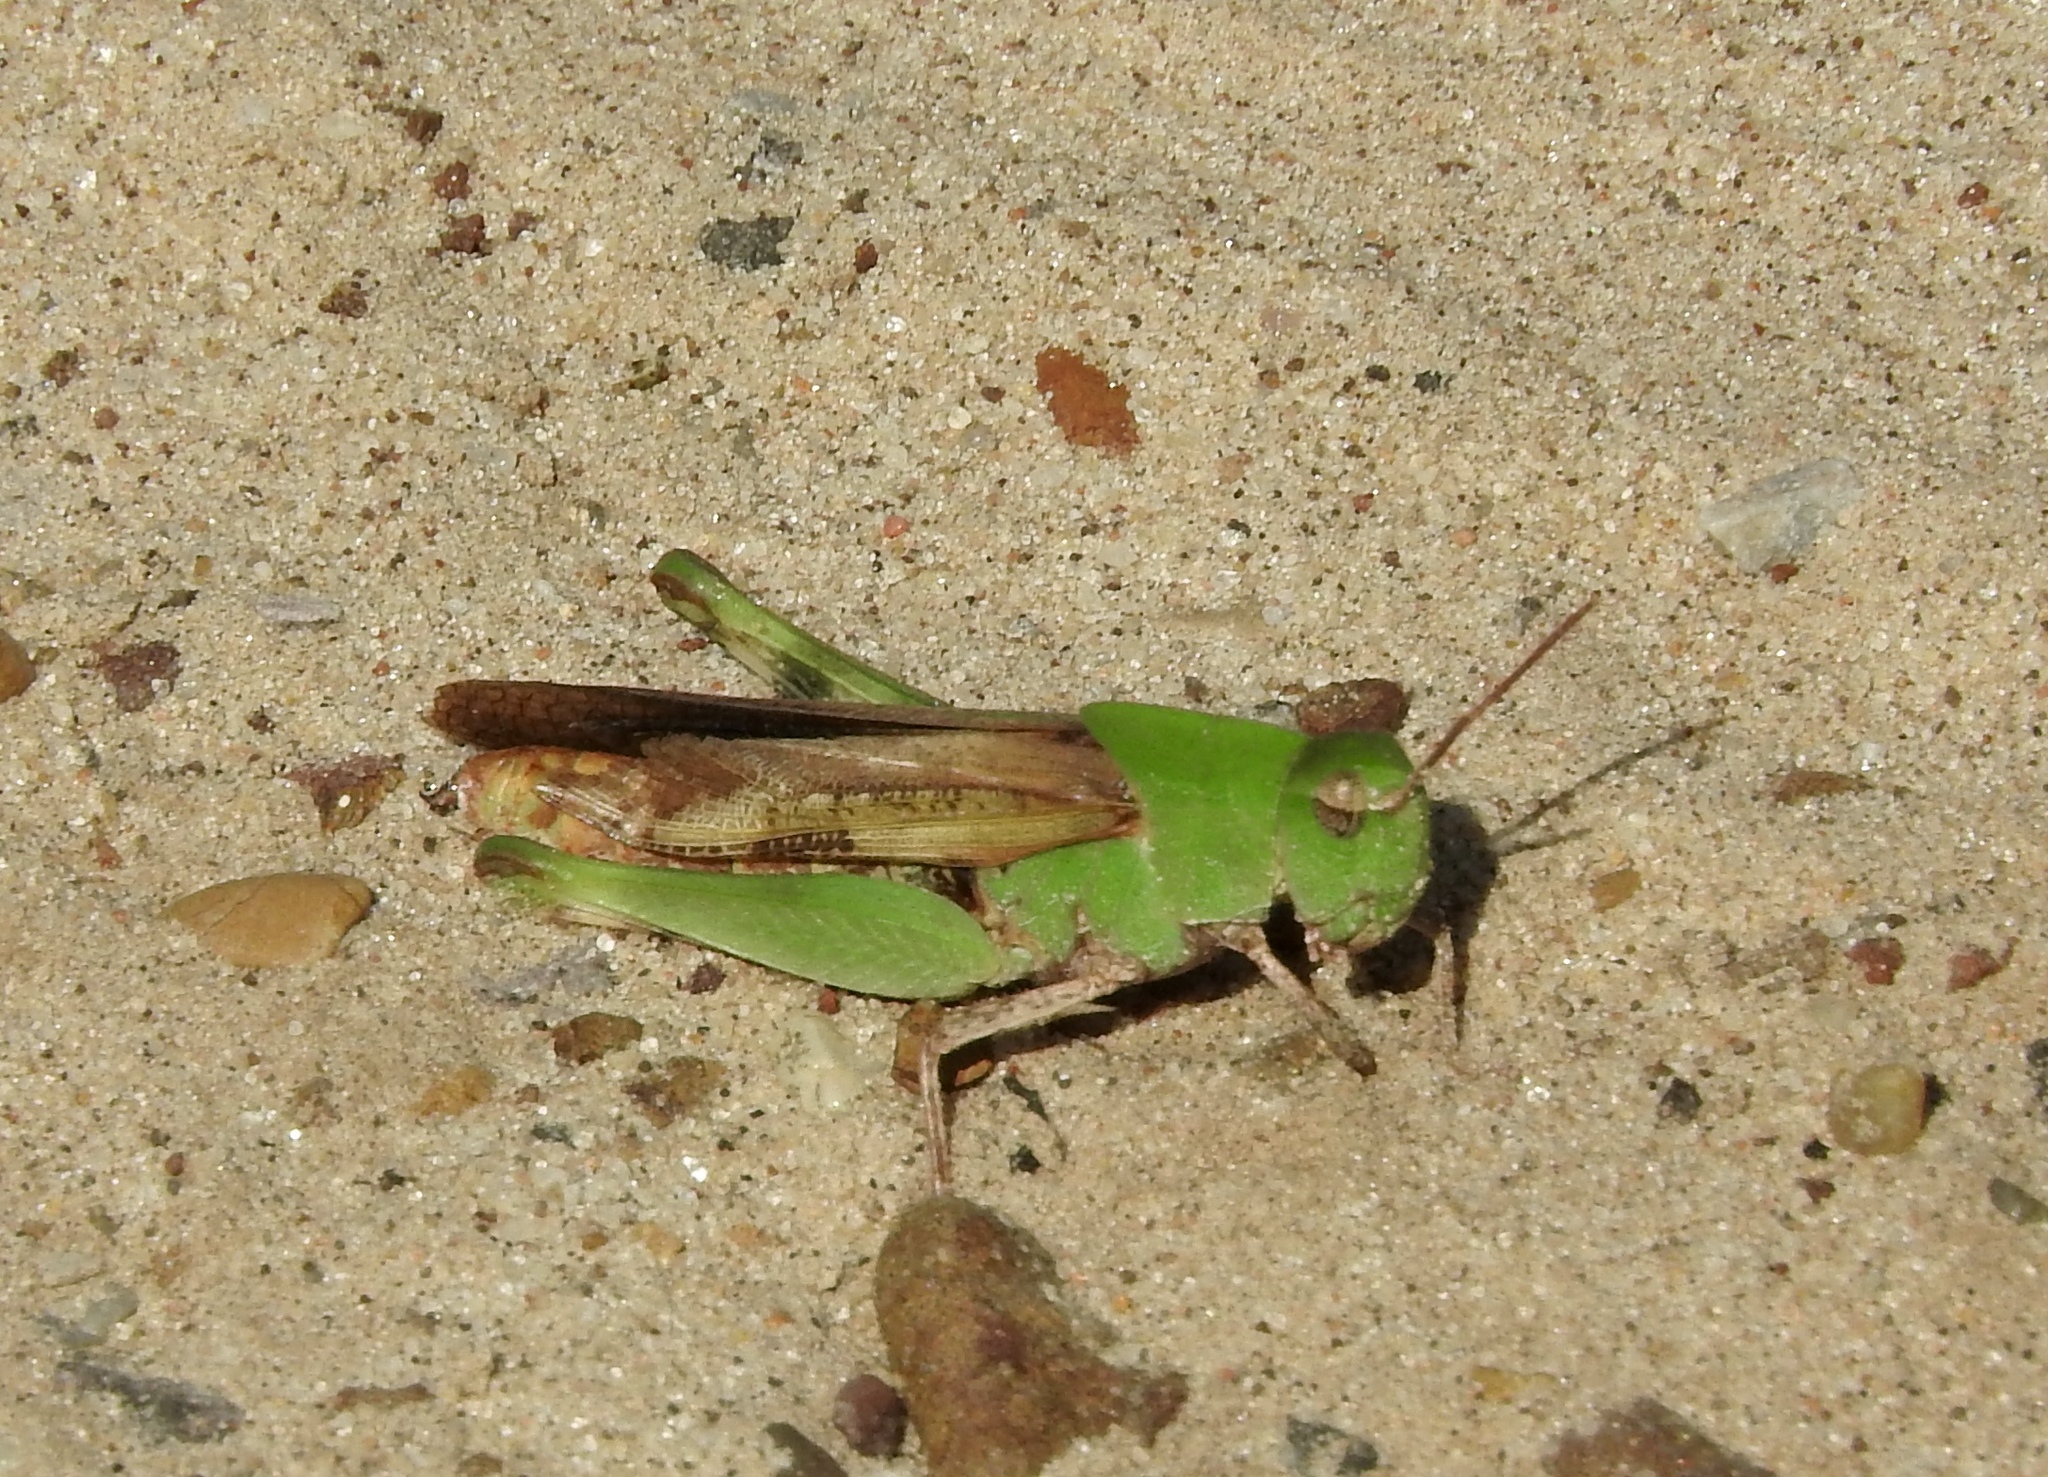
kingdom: Animalia
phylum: Arthropoda
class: Insecta
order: Orthoptera
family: Acrididae
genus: Chortophaga
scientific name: Chortophaga viridifasciata
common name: Green-striped grasshopper
